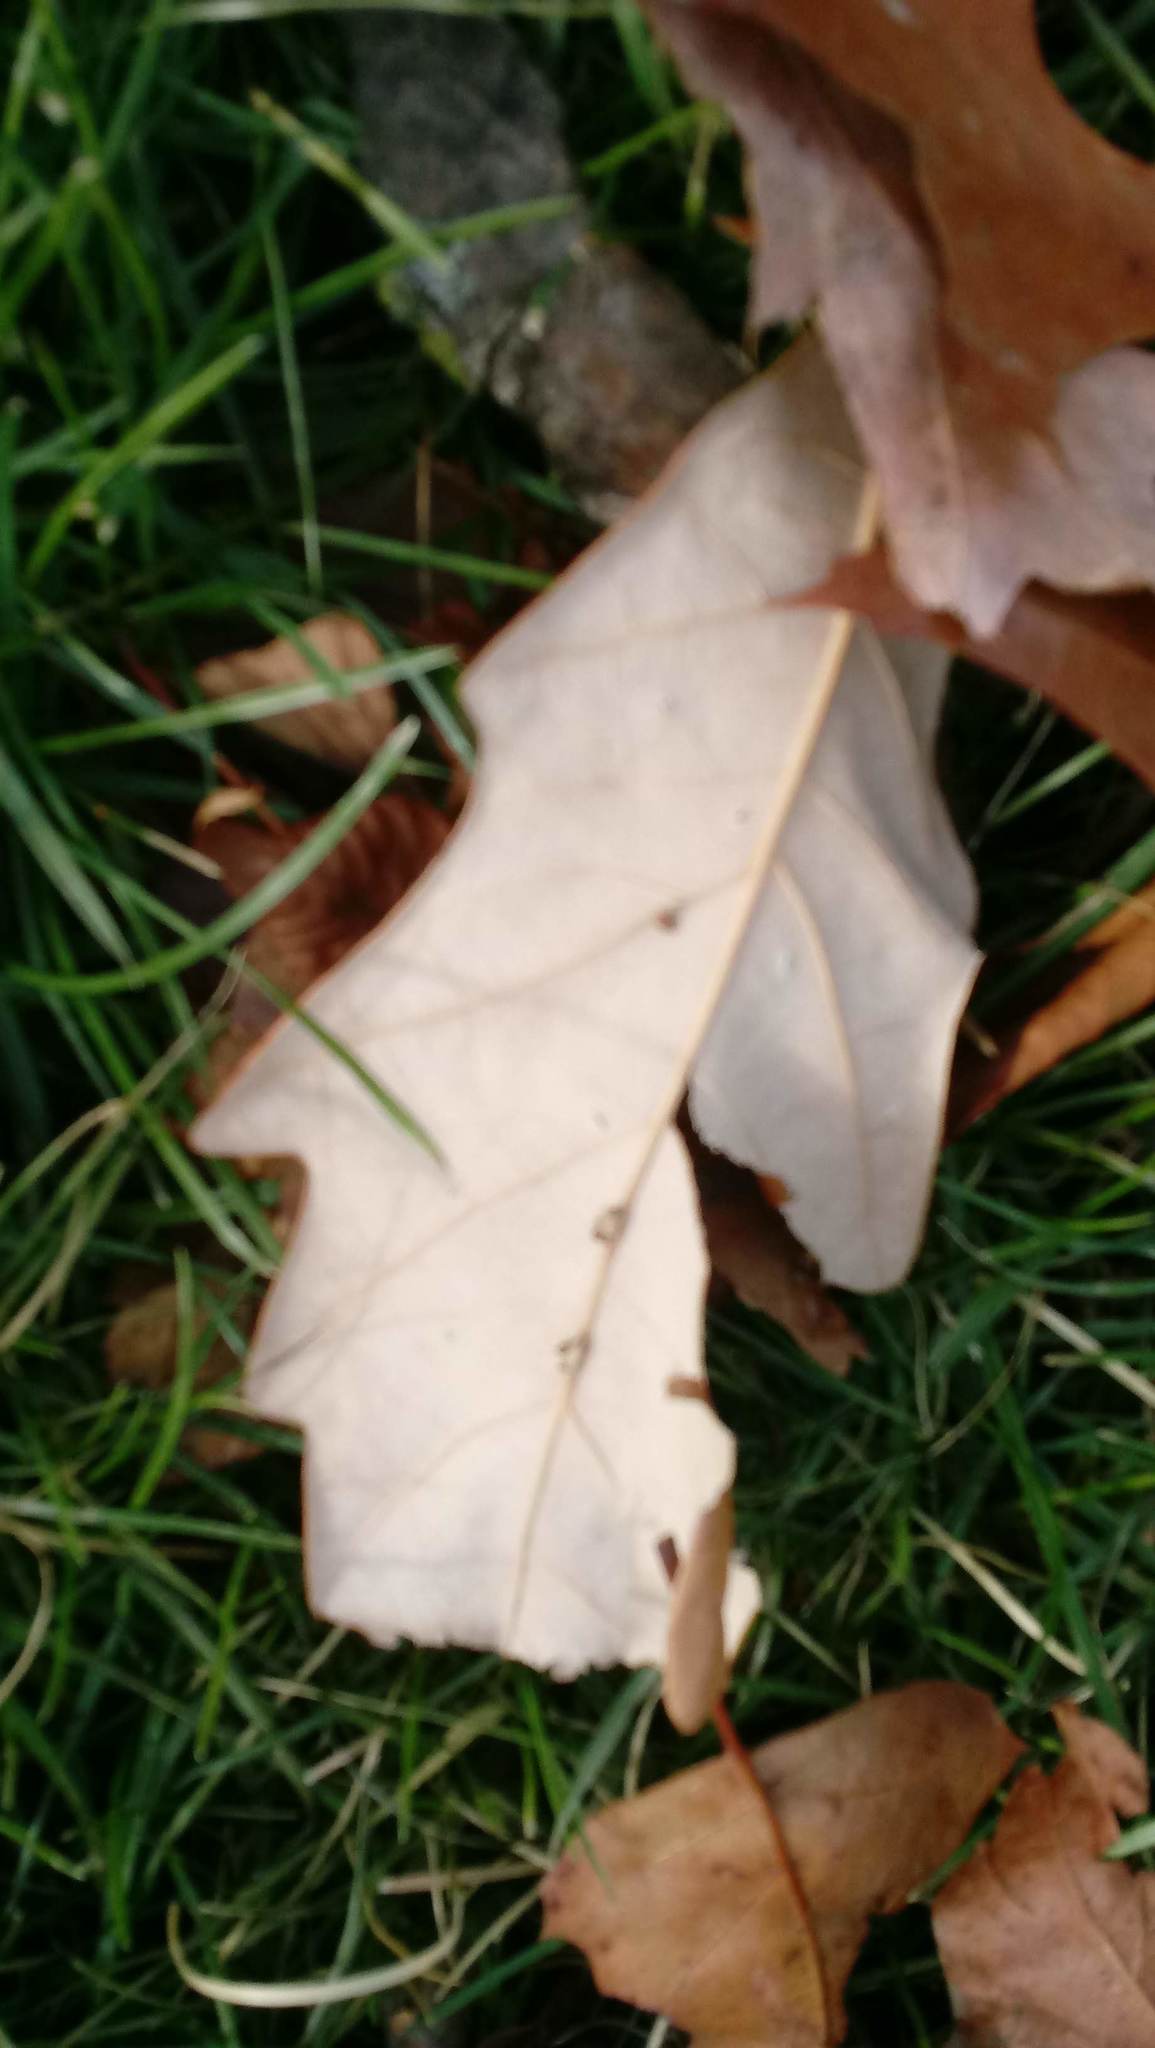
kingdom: Animalia
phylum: Arthropoda
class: Insecta
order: Hymenoptera
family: Cynipidae
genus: Andricus
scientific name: Andricus Druon ignotum
